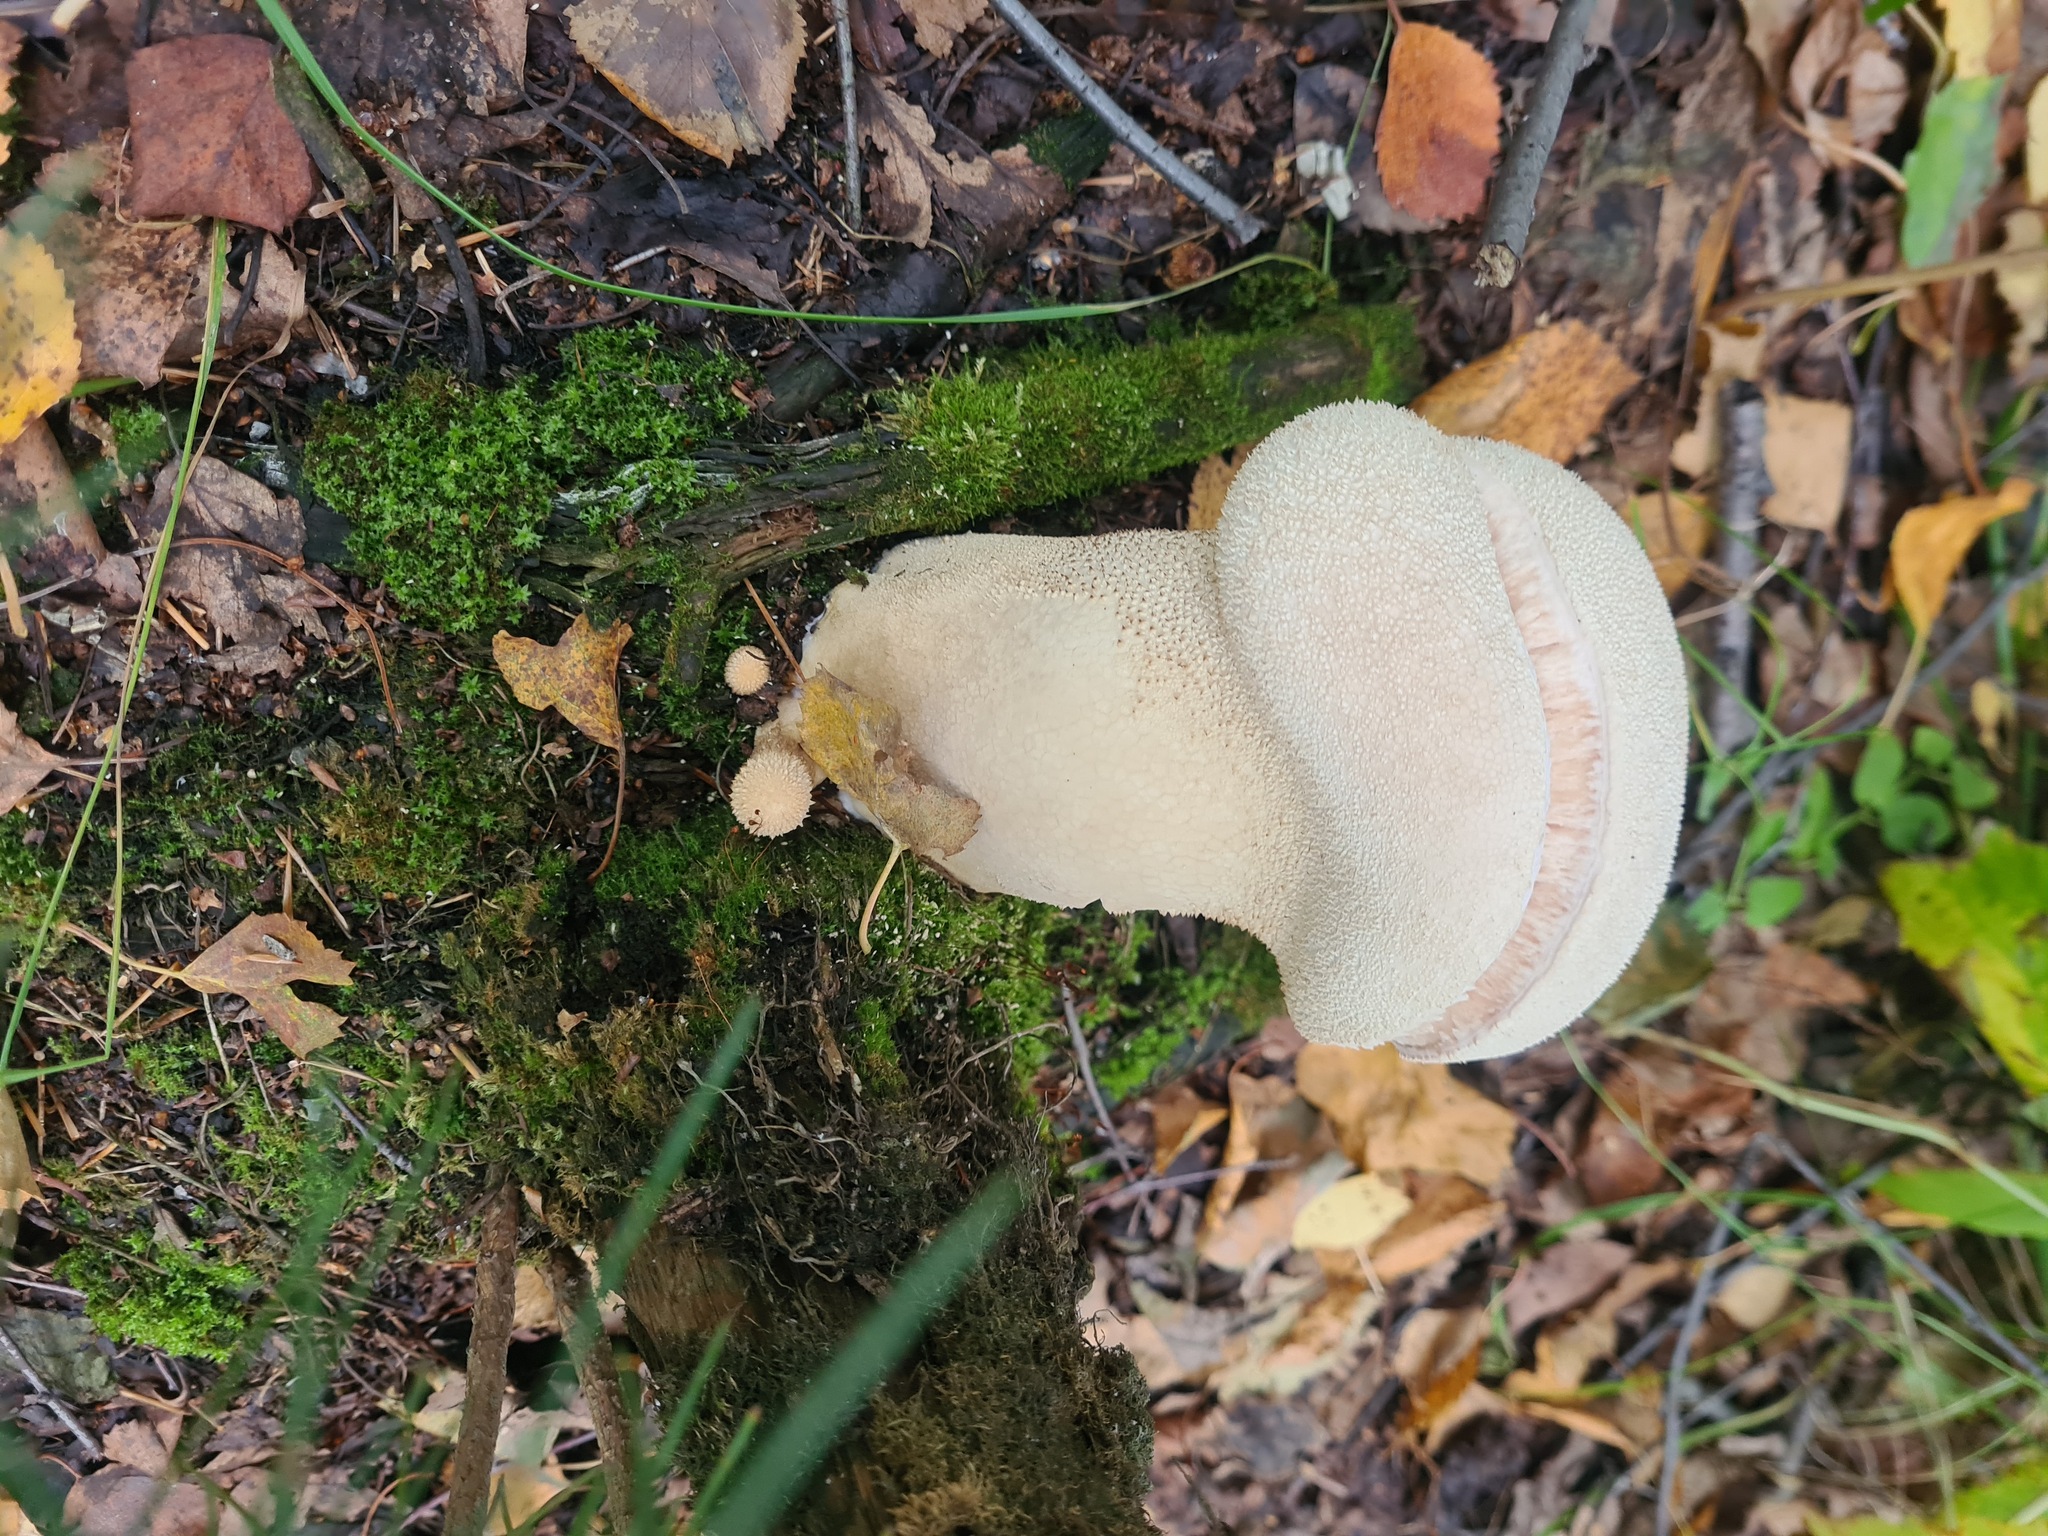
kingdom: Fungi
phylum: Basidiomycota
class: Agaricomycetes
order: Agaricales
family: Lycoperdaceae
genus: Lycoperdon
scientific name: Lycoperdon excipuliforme
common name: Pestle puffball
